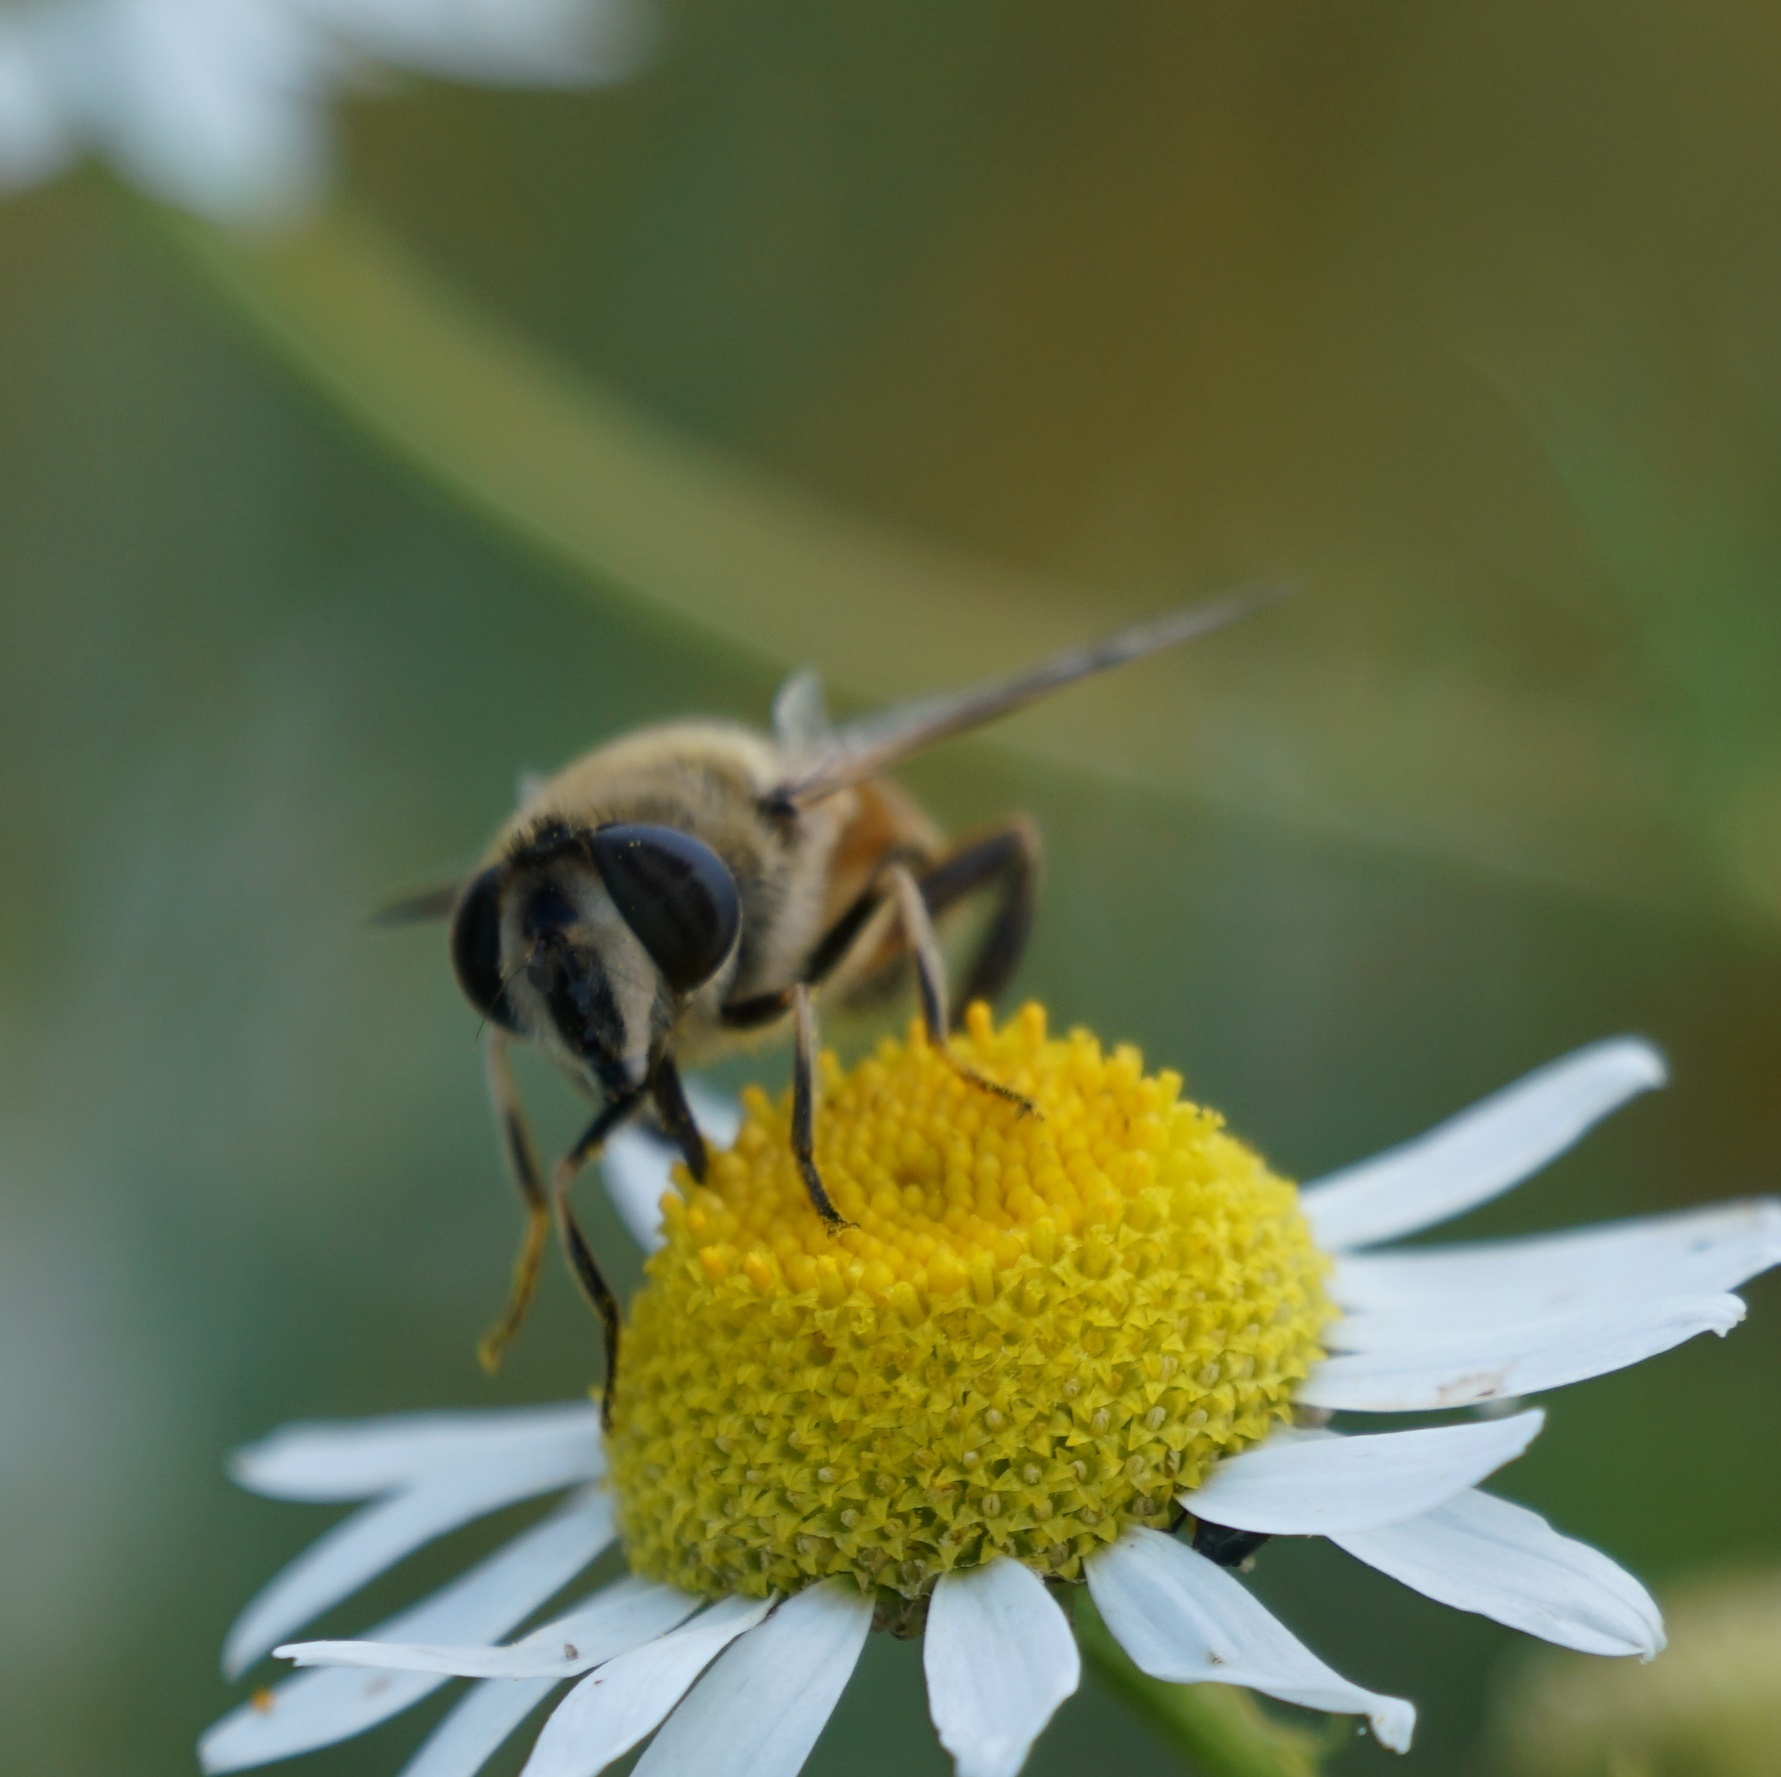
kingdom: Animalia
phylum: Arthropoda
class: Insecta
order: Diptera
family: Syrphidae
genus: Eristalis
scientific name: Eristalis tenax
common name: Drone fly
